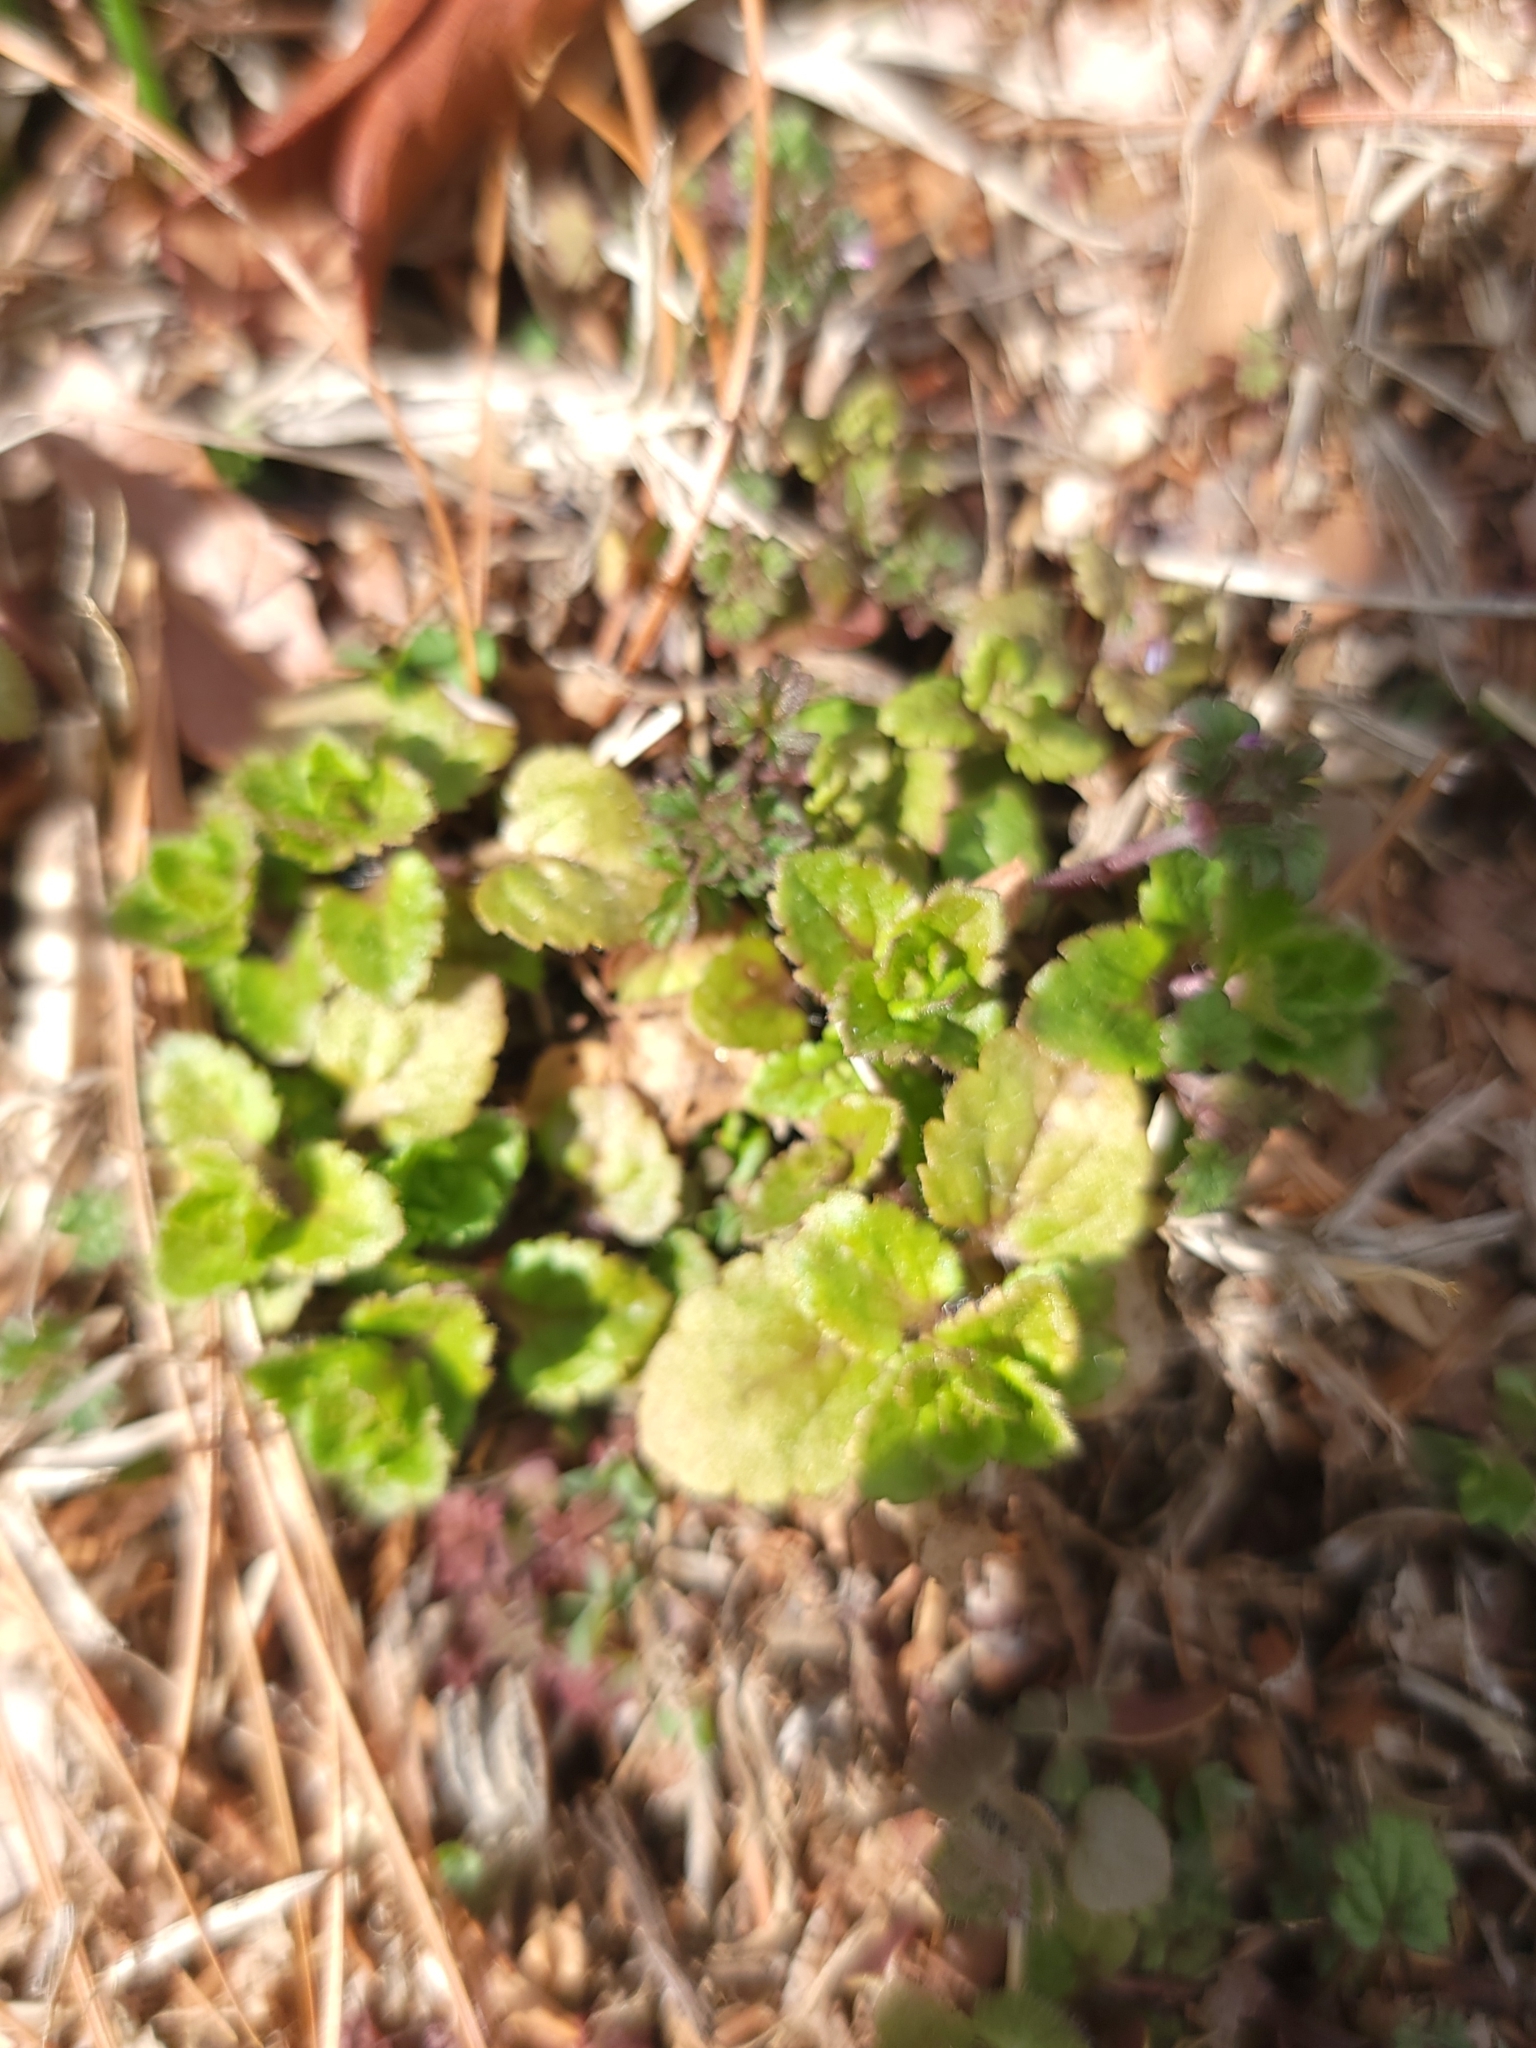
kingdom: Plantae
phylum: Tracheophyta
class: Magnoliopsida
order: Lamiales
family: Plantaginaceae
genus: Veronica
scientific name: Veronica persica
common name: Common field-speedwell
